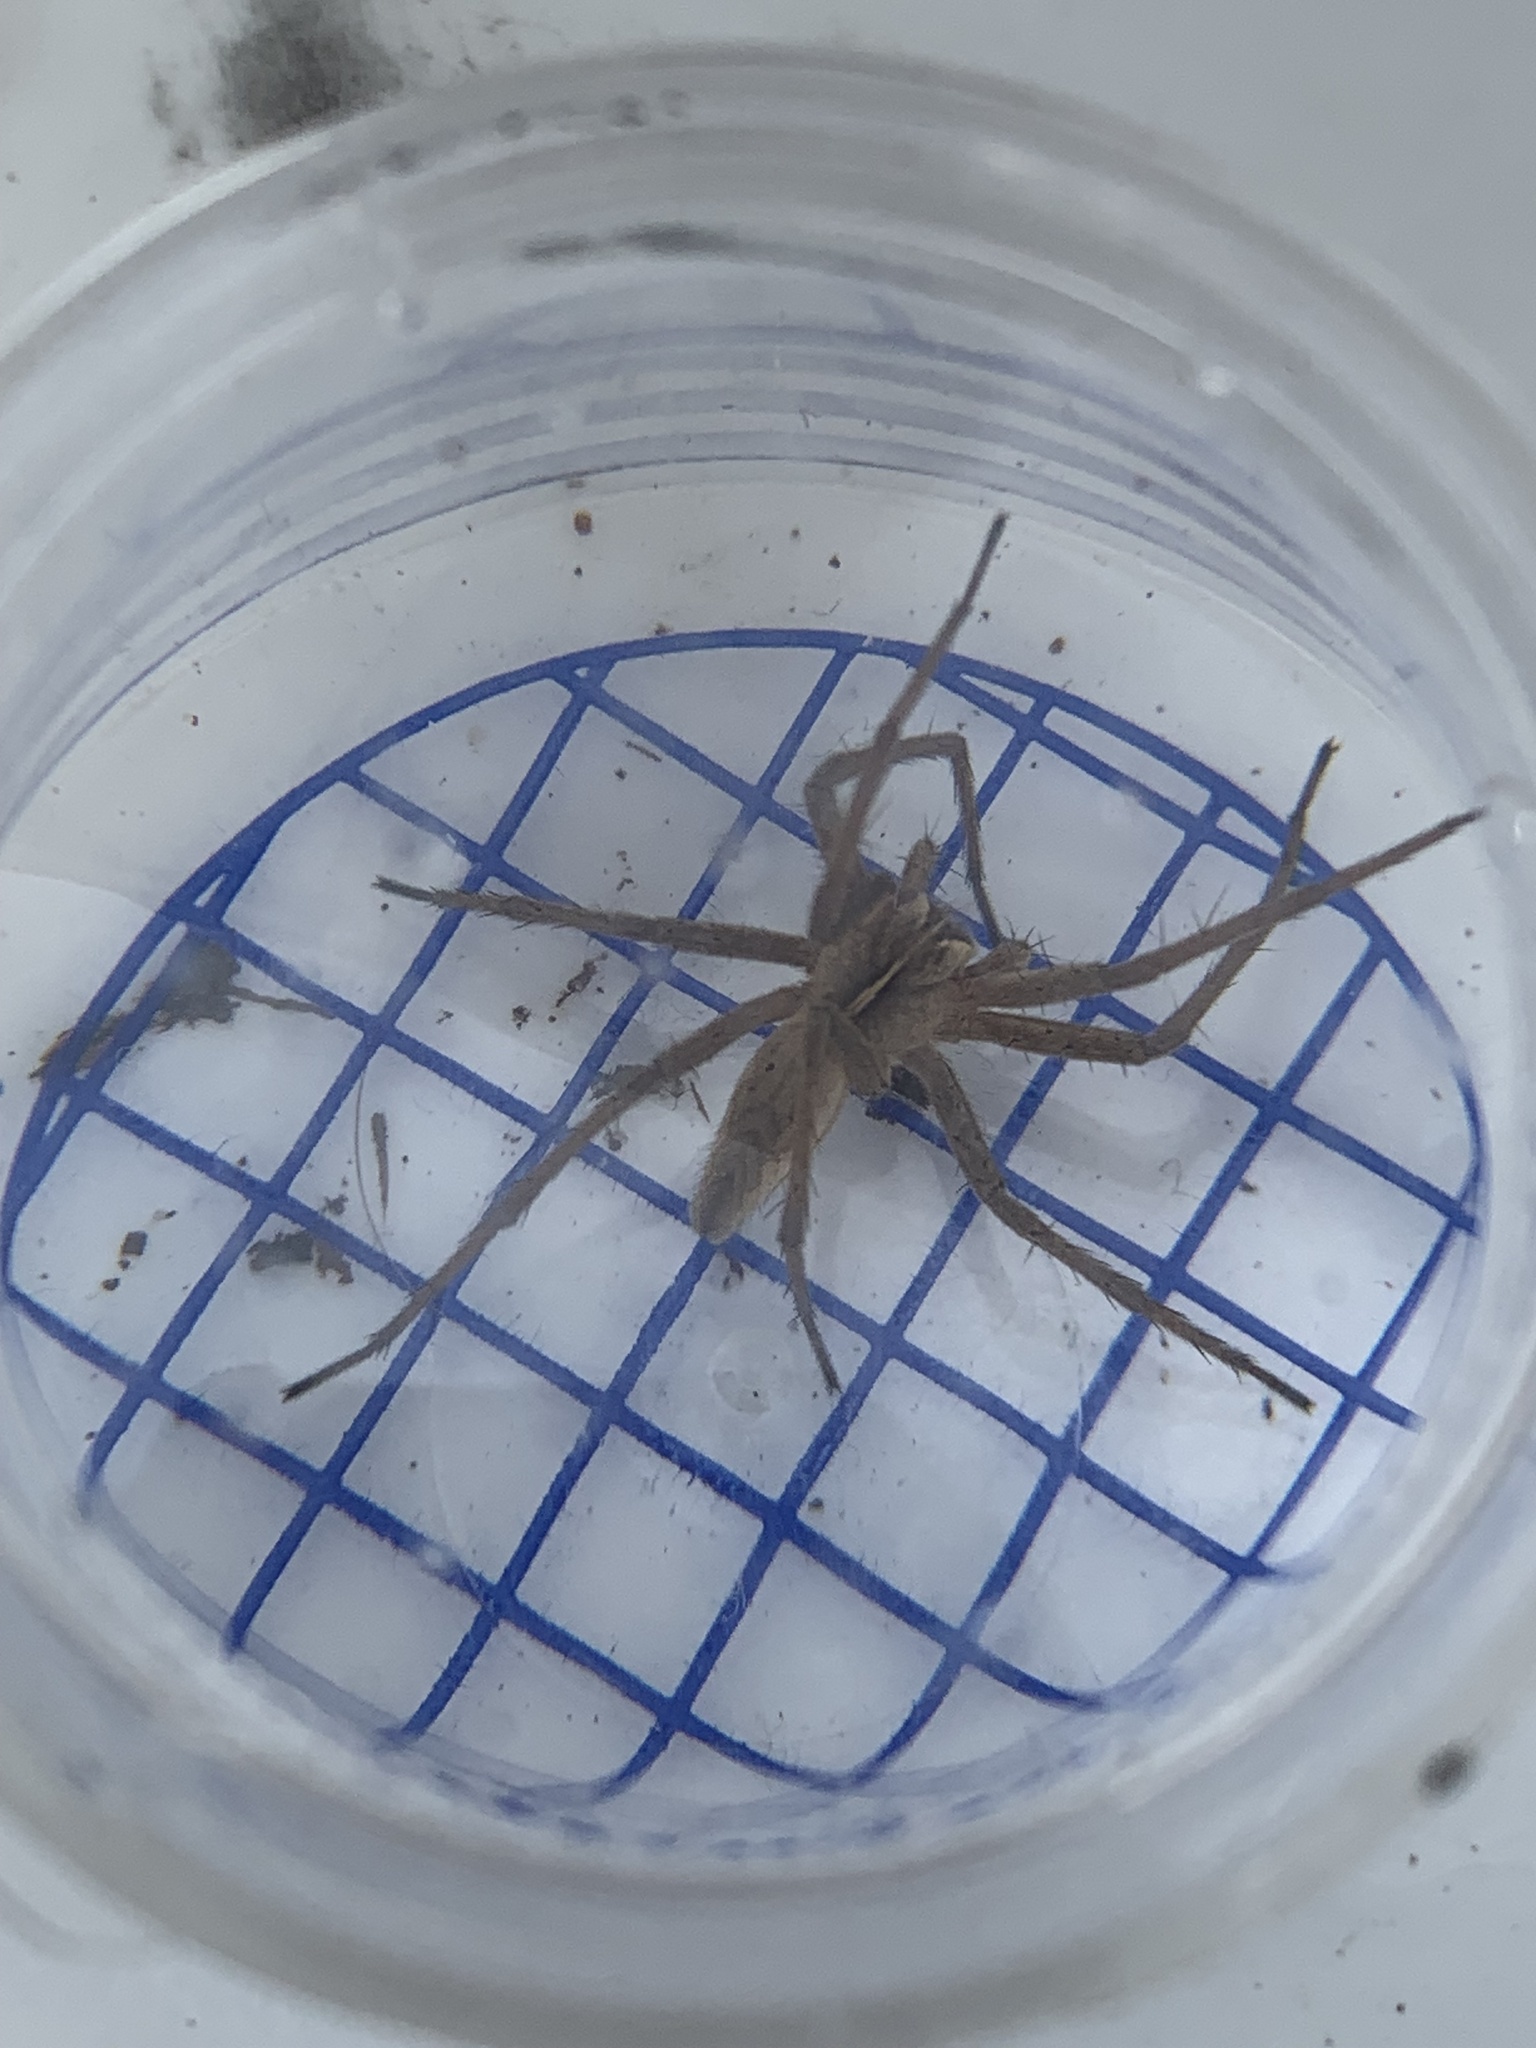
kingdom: Animalia
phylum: Arthropoda
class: Arachnida
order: Araneae
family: Pisauridae
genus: Pisaura
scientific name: Pisaura mirabilis
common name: Tent spider
